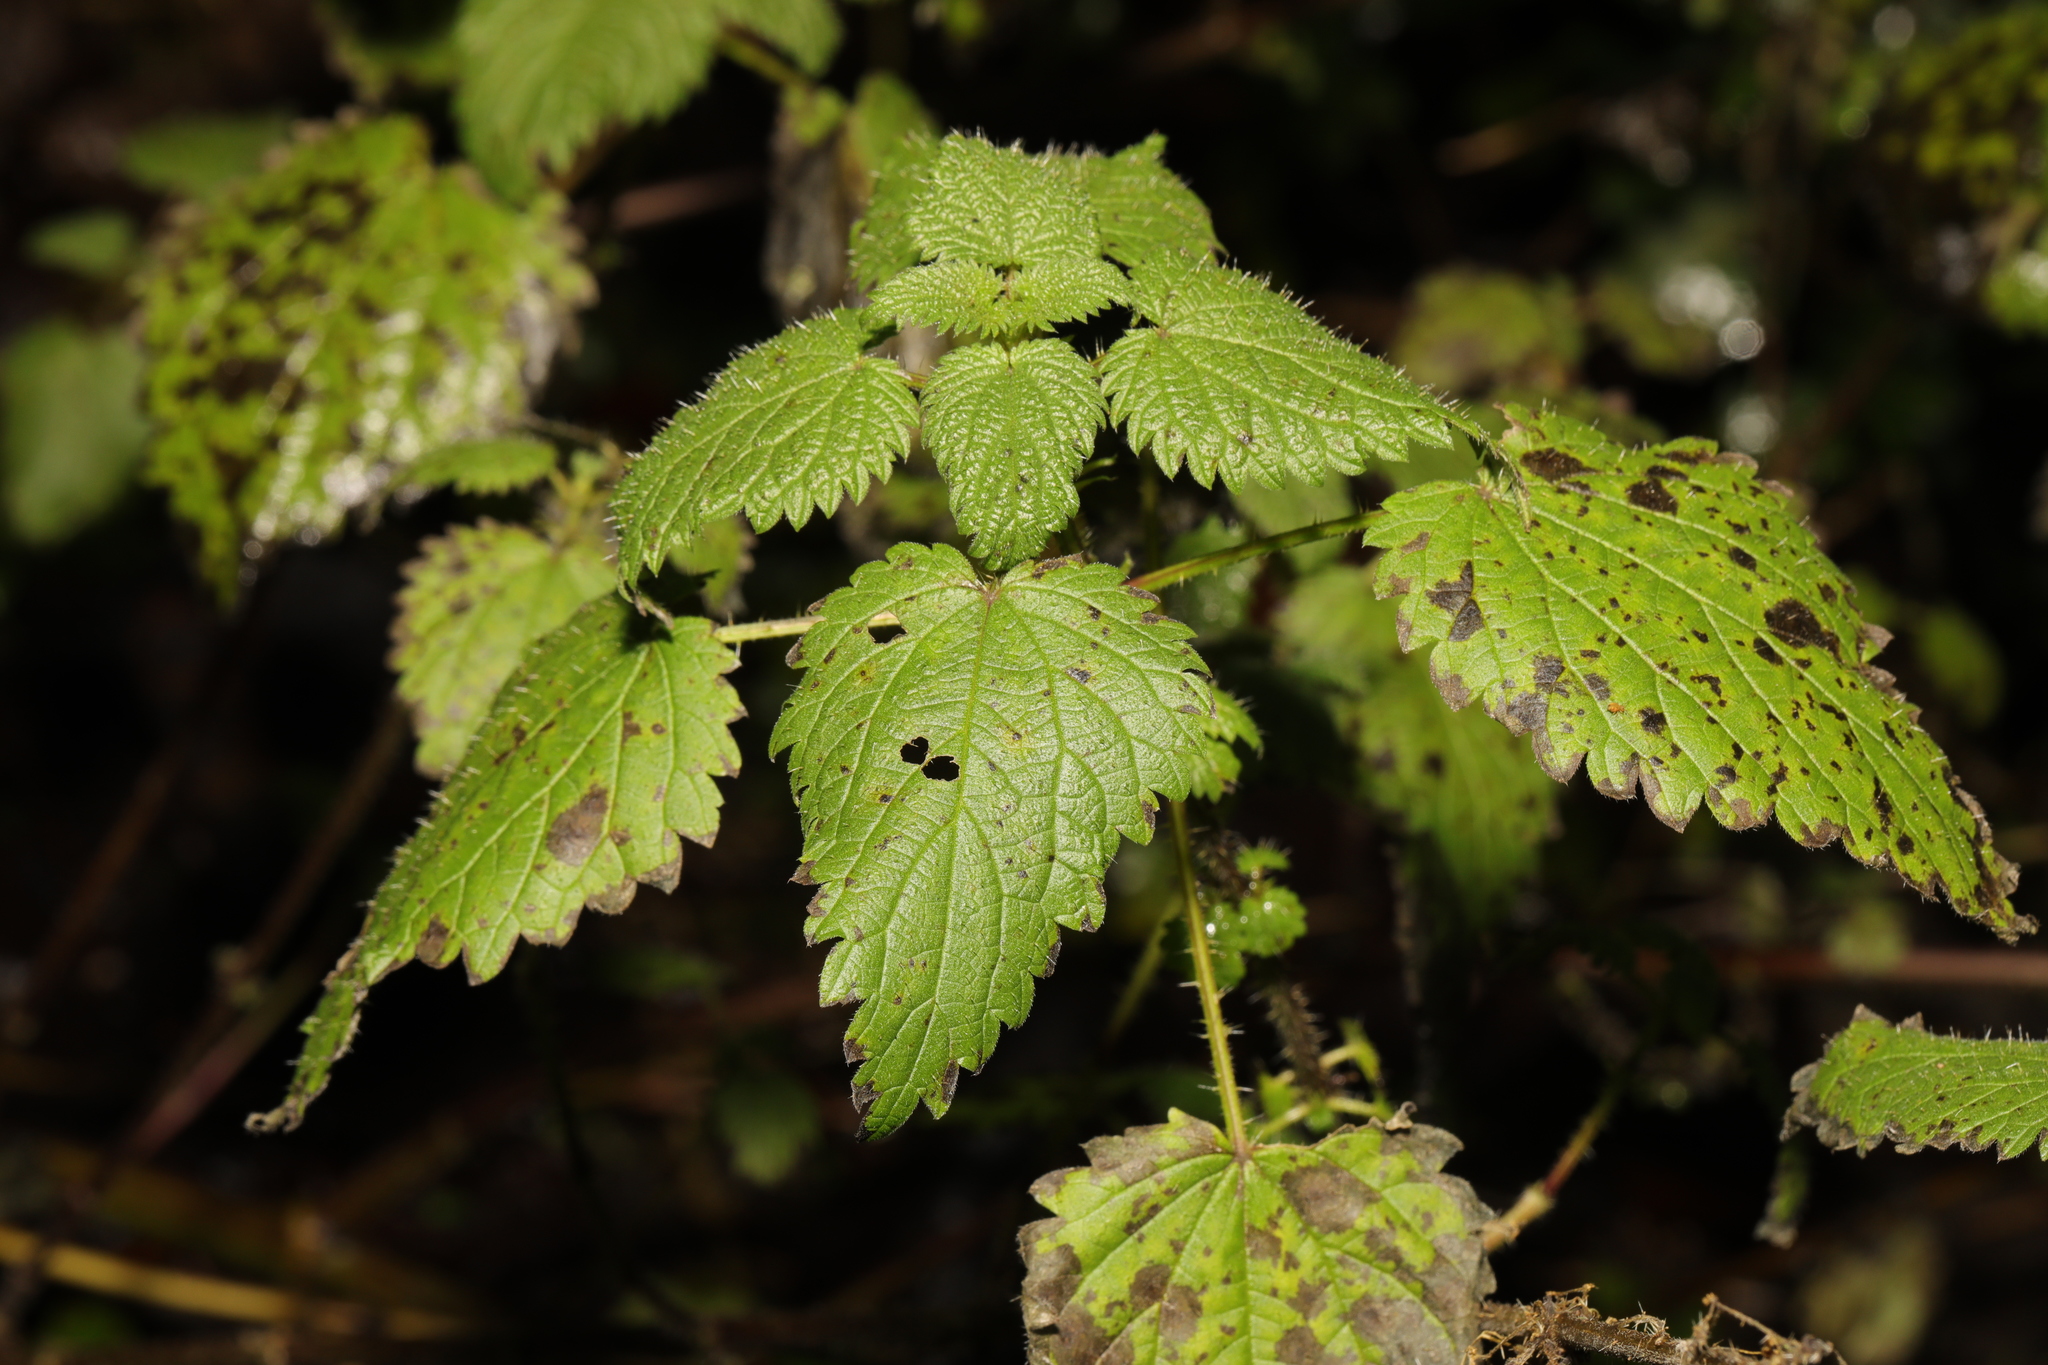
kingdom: Plantae
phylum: Tracheophyta
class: Magnoliopsida
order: Rosales
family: Urticaceae
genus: Urtica
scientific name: Urtica dioica
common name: Common nettle
